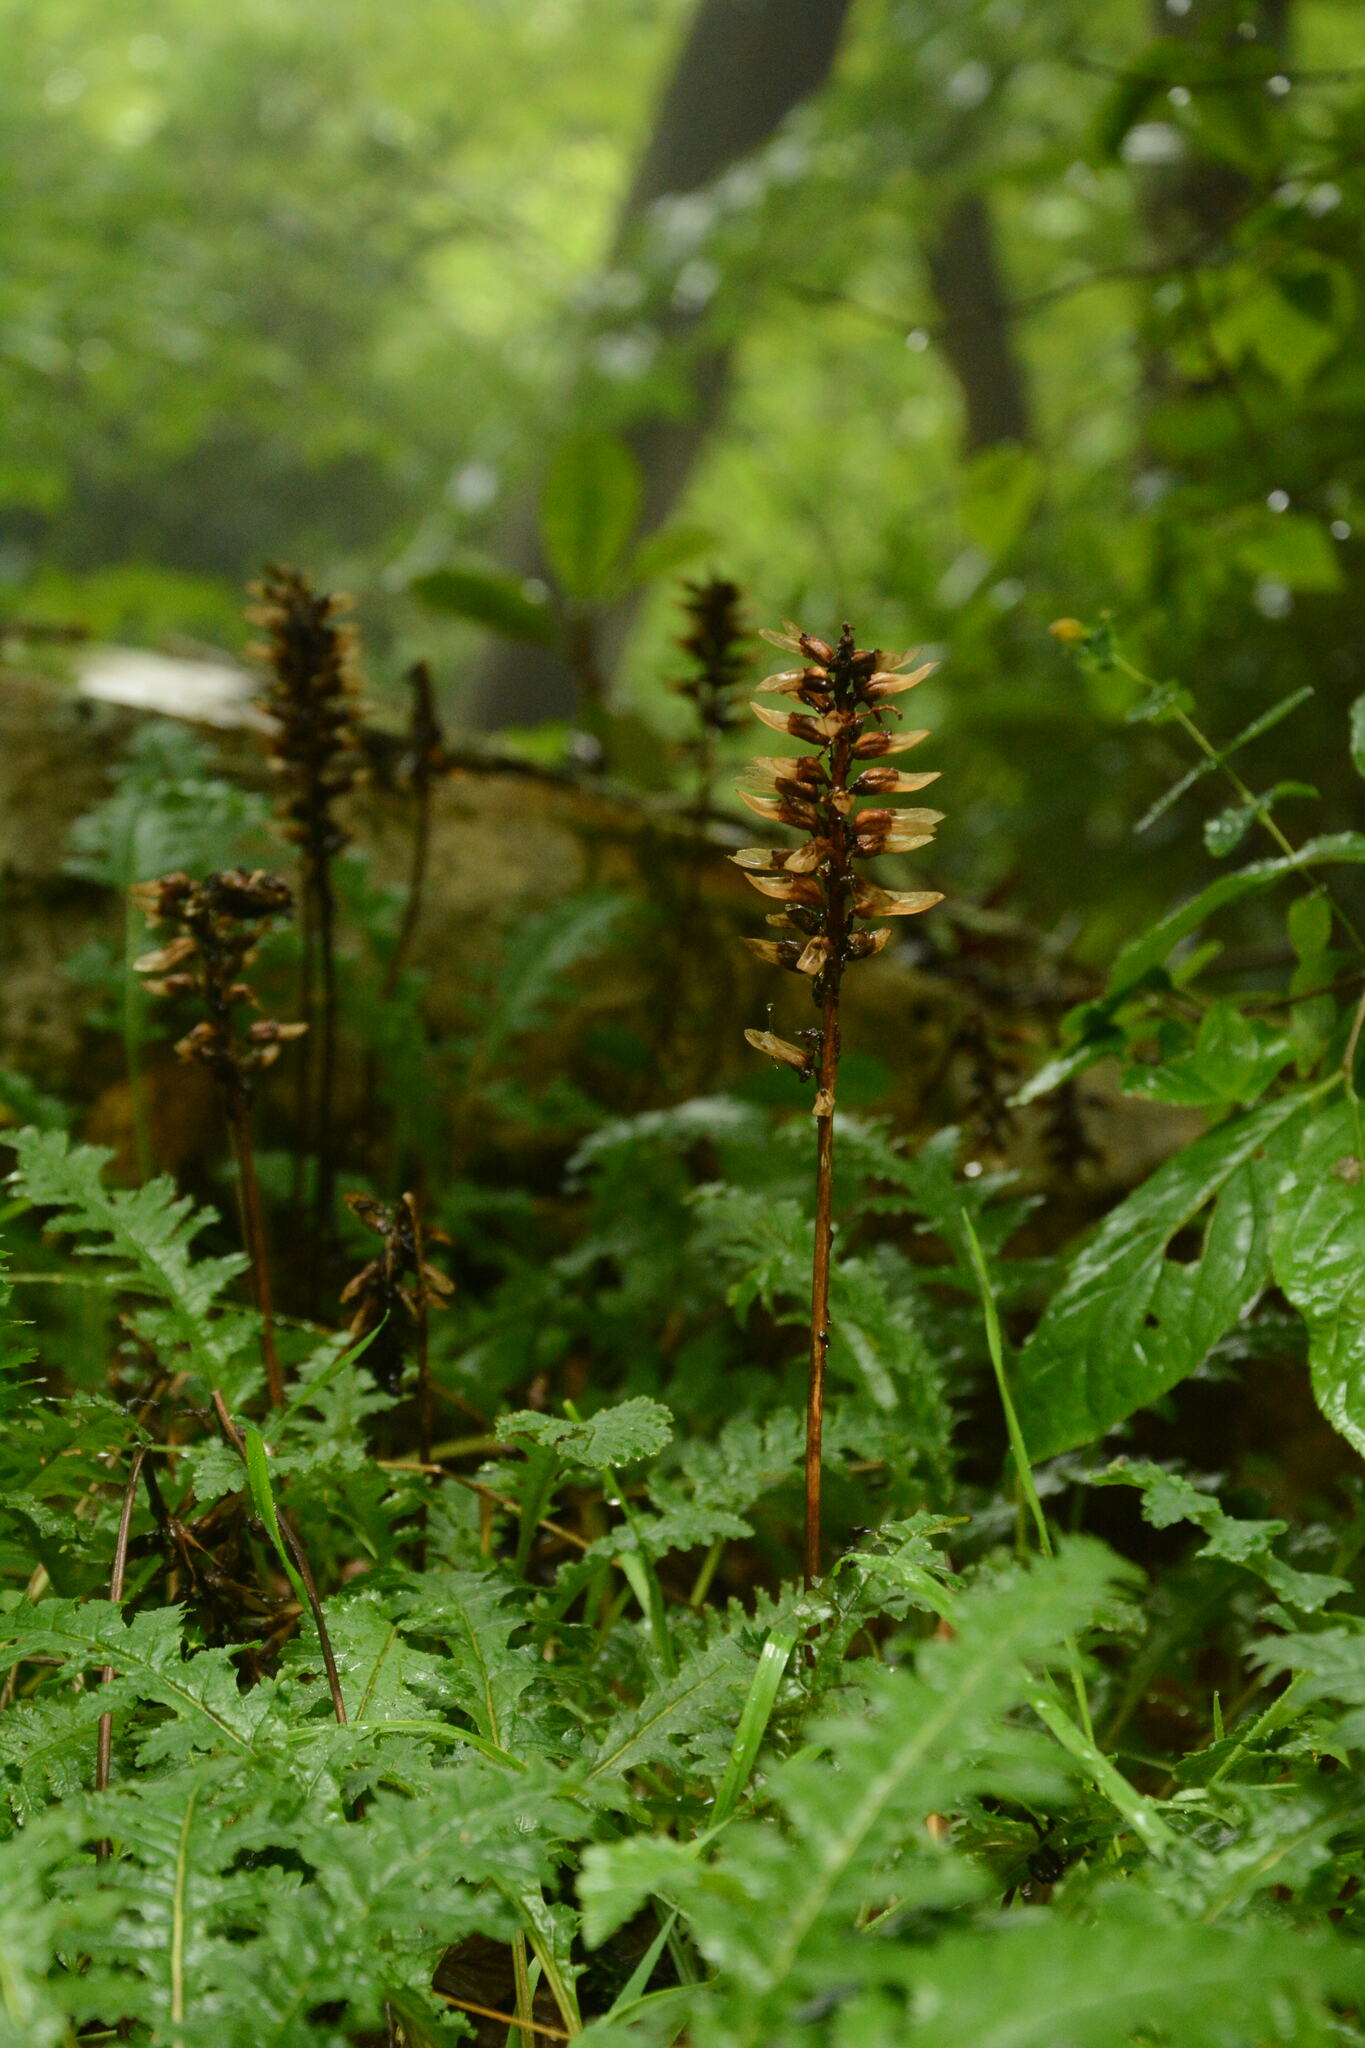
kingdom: Plantae
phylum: Tracheophyta
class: Magnoliopsida
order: Lamiales
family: Orobanchaceae
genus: Pedicularis
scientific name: Pedicularis canadensis
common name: Early lousewort
